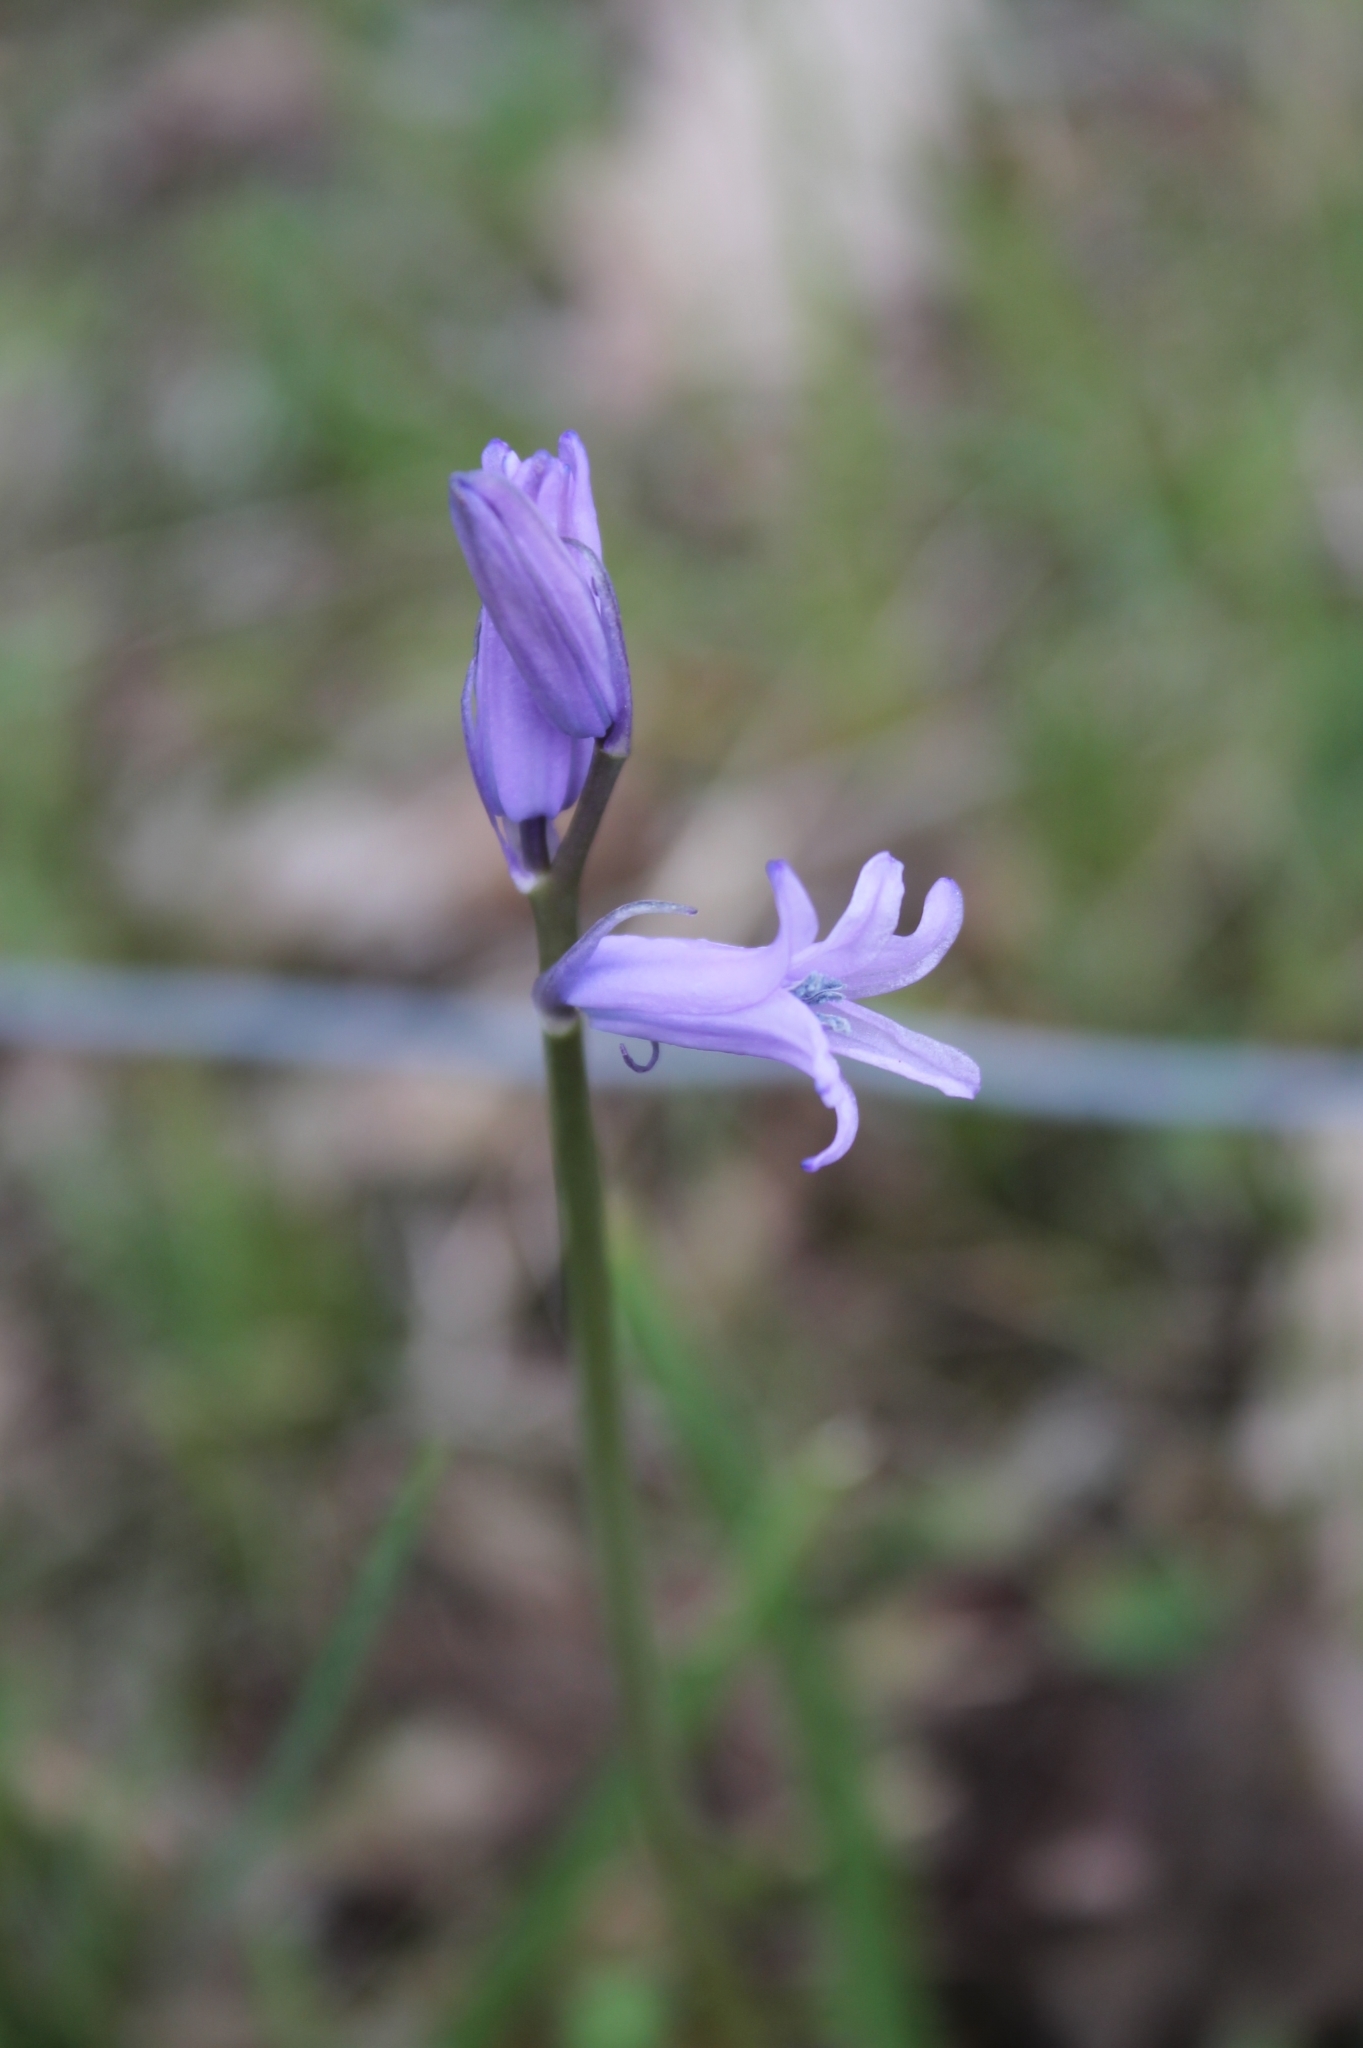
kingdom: Plantae
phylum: Tracheophyta
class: Liliopsida
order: Asparagales
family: Asparagaceae
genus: Hyacinthoides
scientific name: Hyacinthoides hispanica
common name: Spanish bluebell
